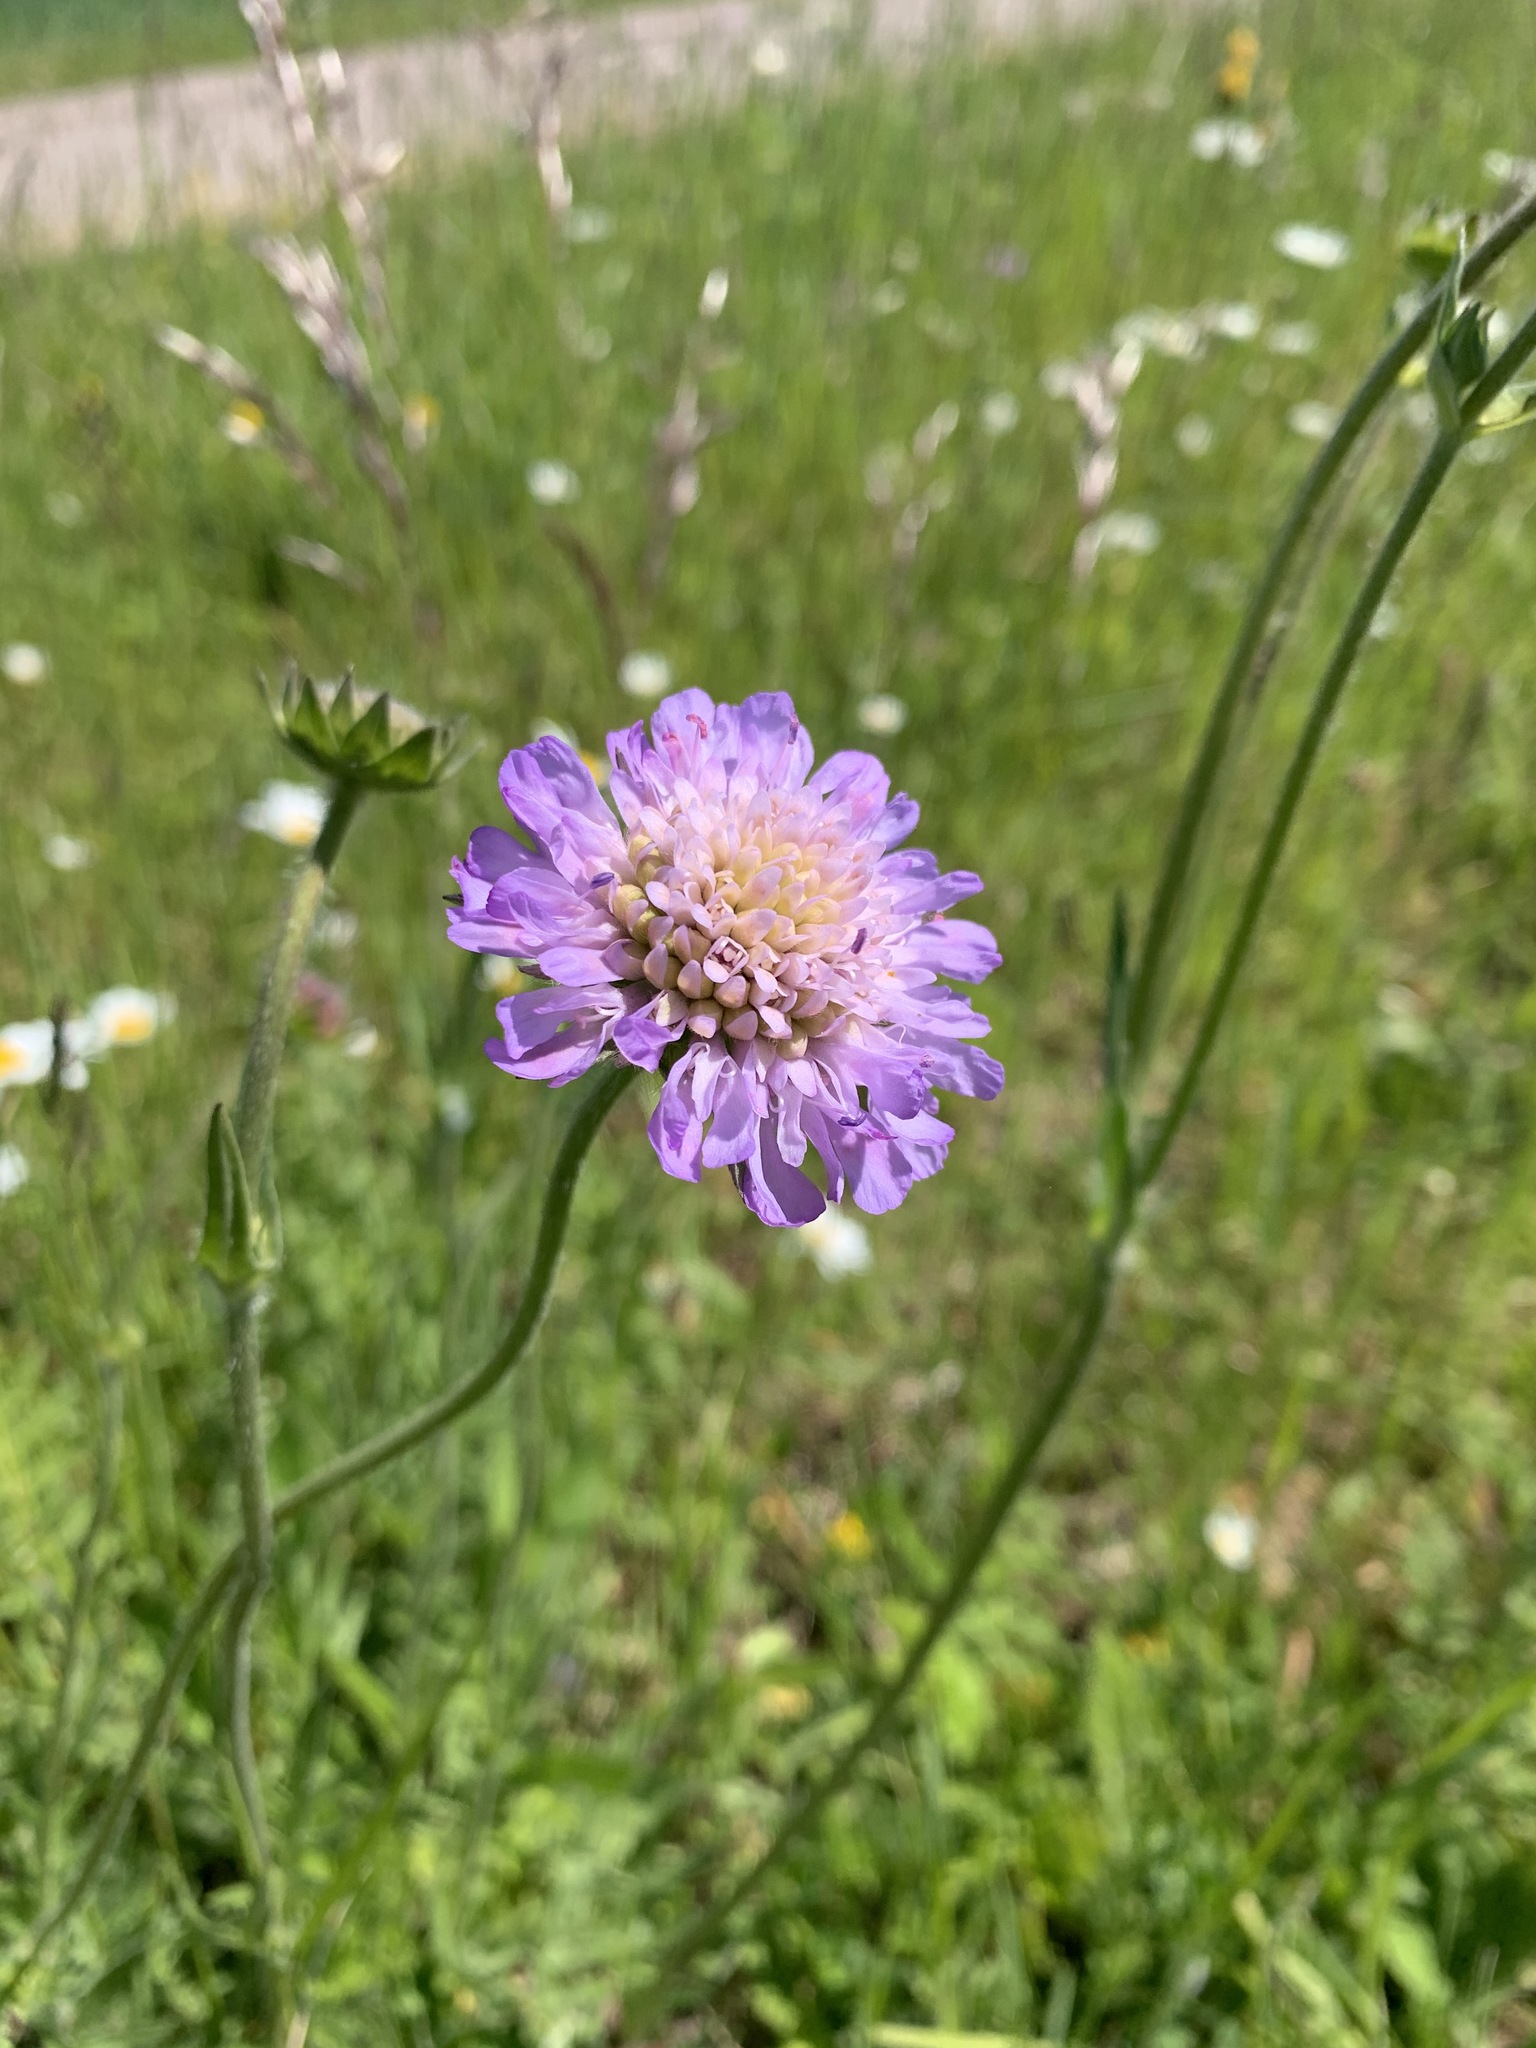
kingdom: Plantae
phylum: Tracheophyta
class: Magnoliopsida
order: Dipsacales
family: Caprifoliaceae
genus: Knautia
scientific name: Knautia arvensis
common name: Field scabiosa
